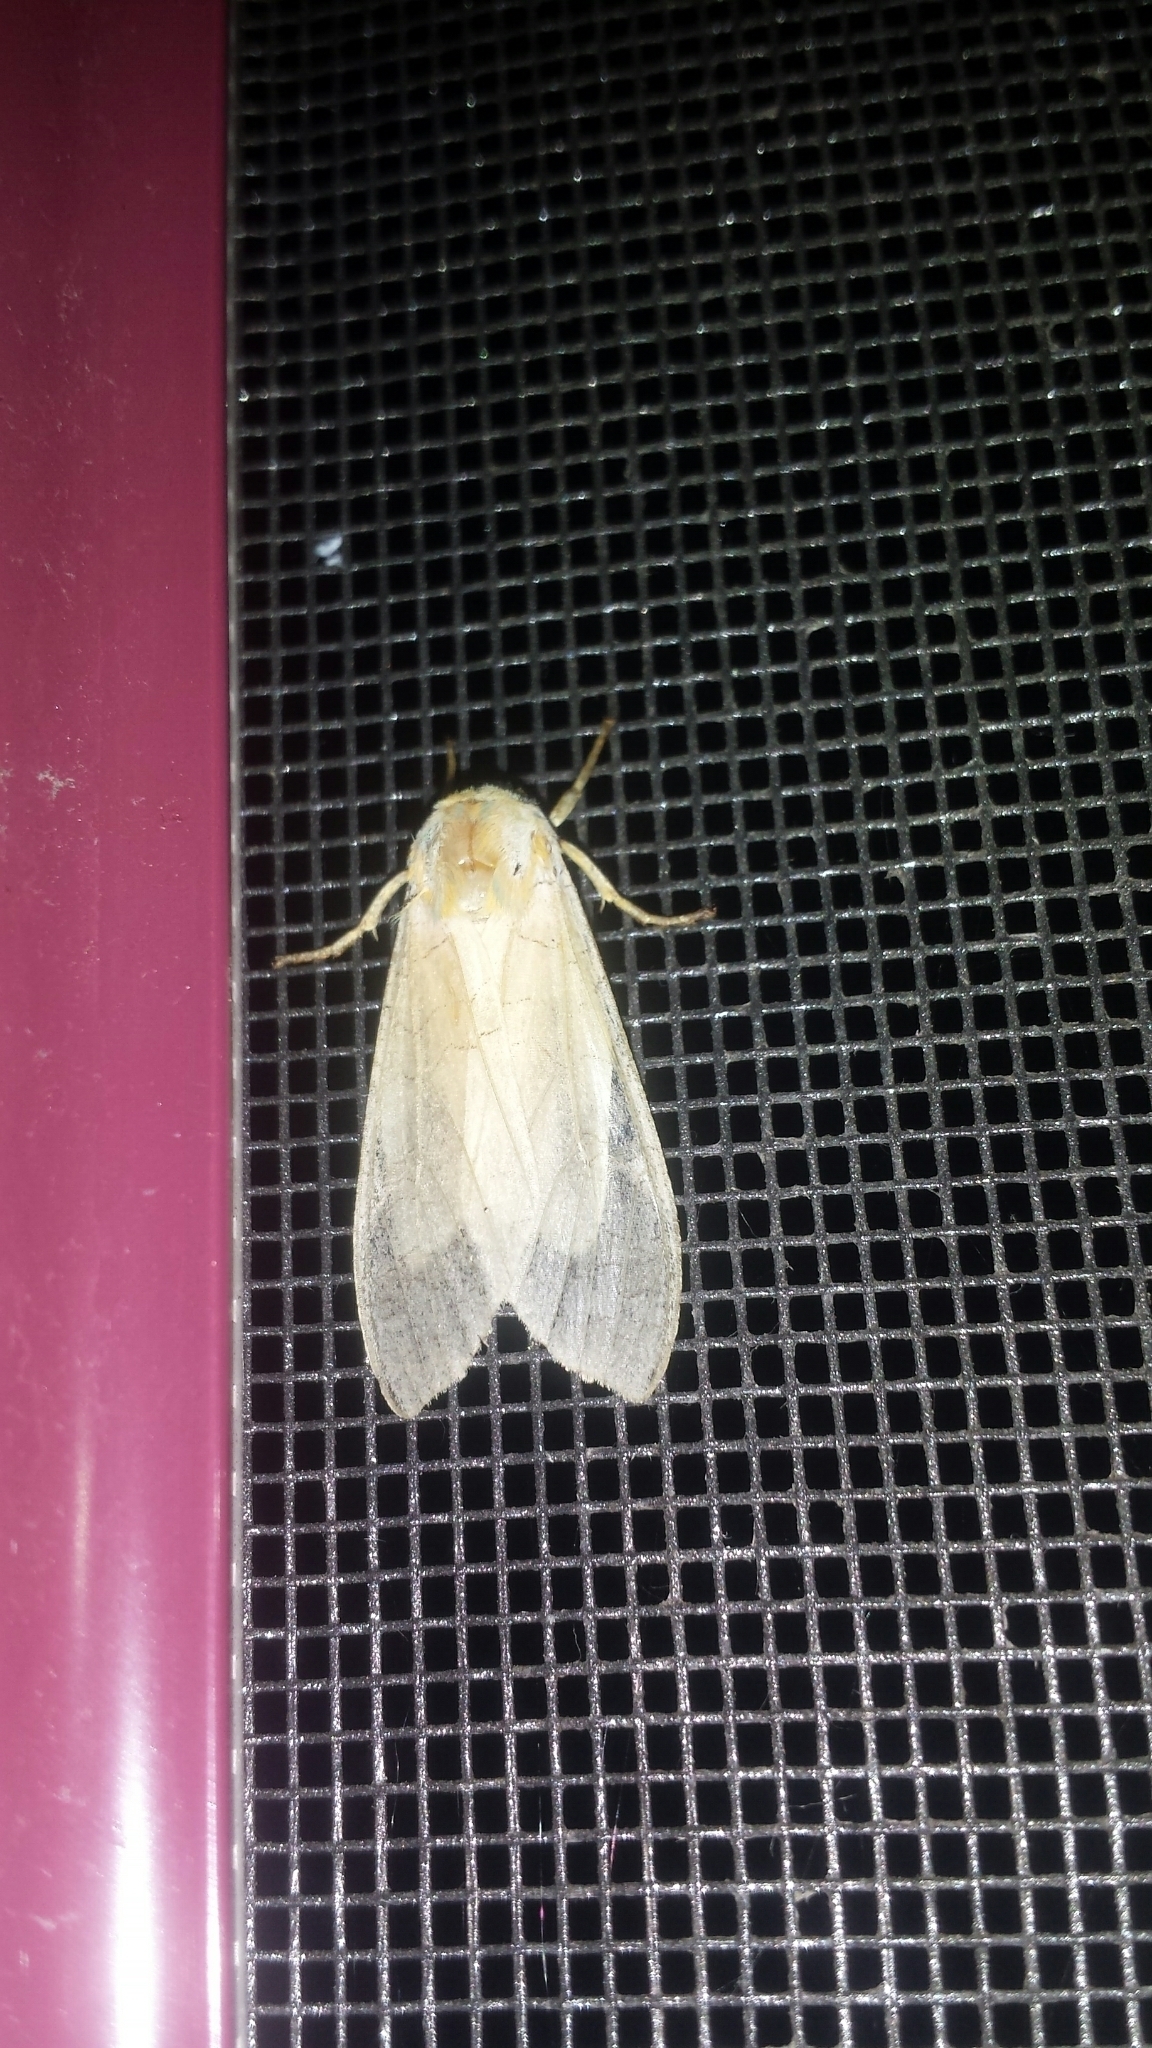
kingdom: Animalia
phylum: Arthropoda
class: Insecta
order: Lepidoptera
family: Erebidae
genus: Halysidota
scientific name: Halysidota
